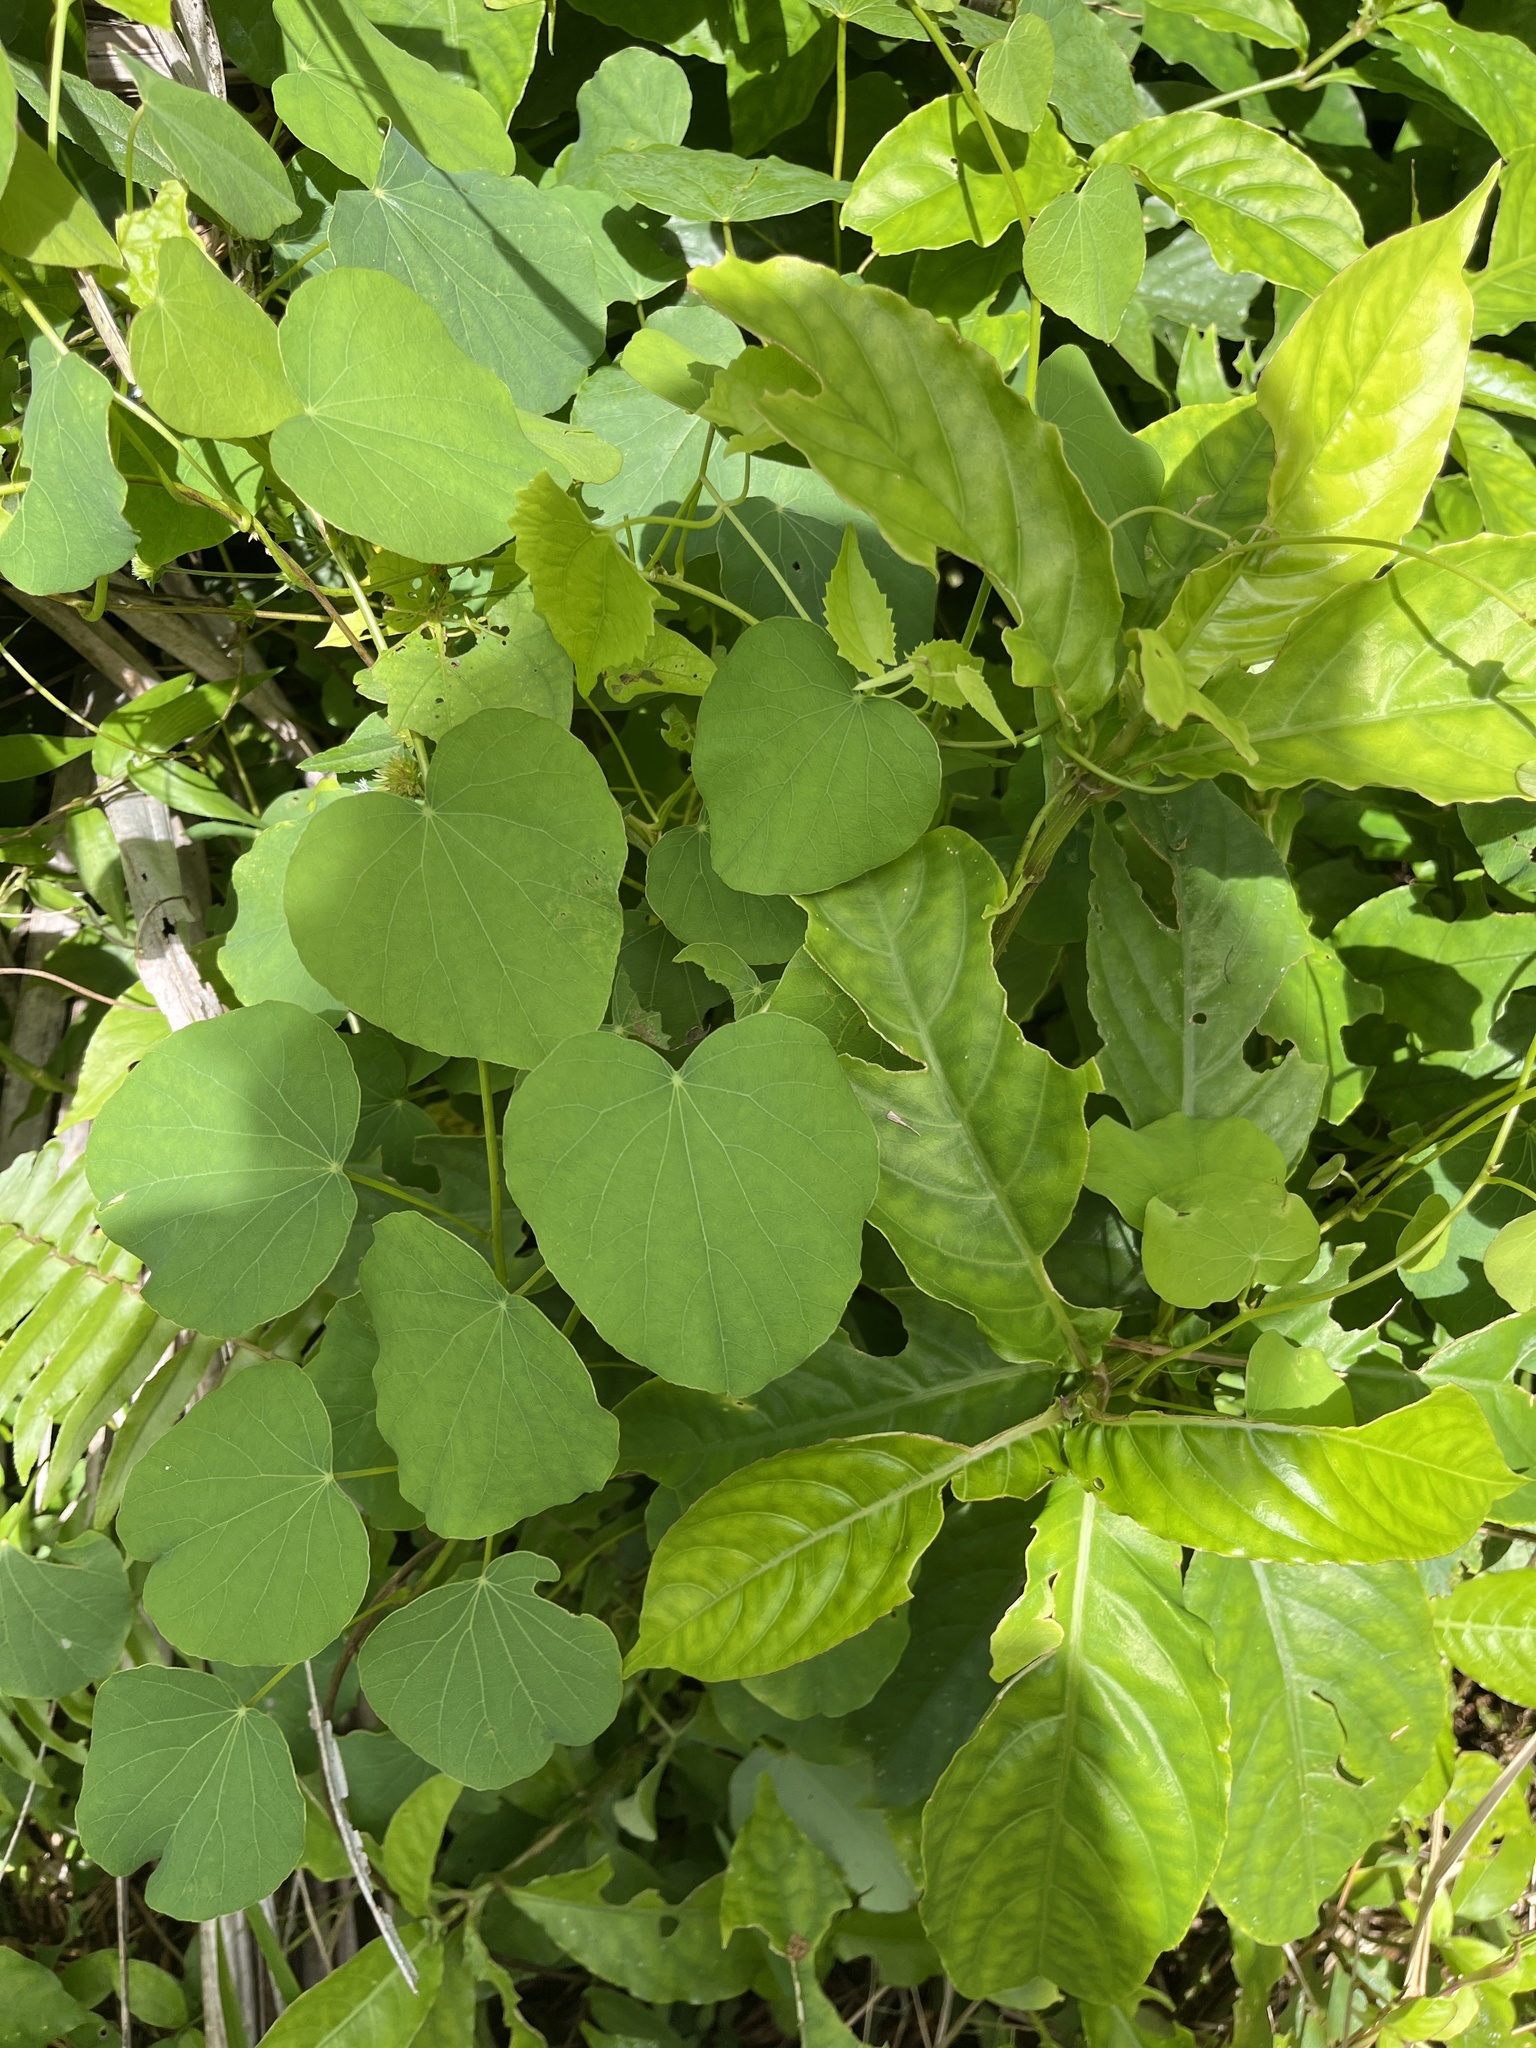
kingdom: Plantae
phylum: Tracheophyta
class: Magnoliopsida
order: Ranunculales
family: Menispermaceae
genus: Cissampelos
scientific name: Cissampelos pareira
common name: Velvetleaf
